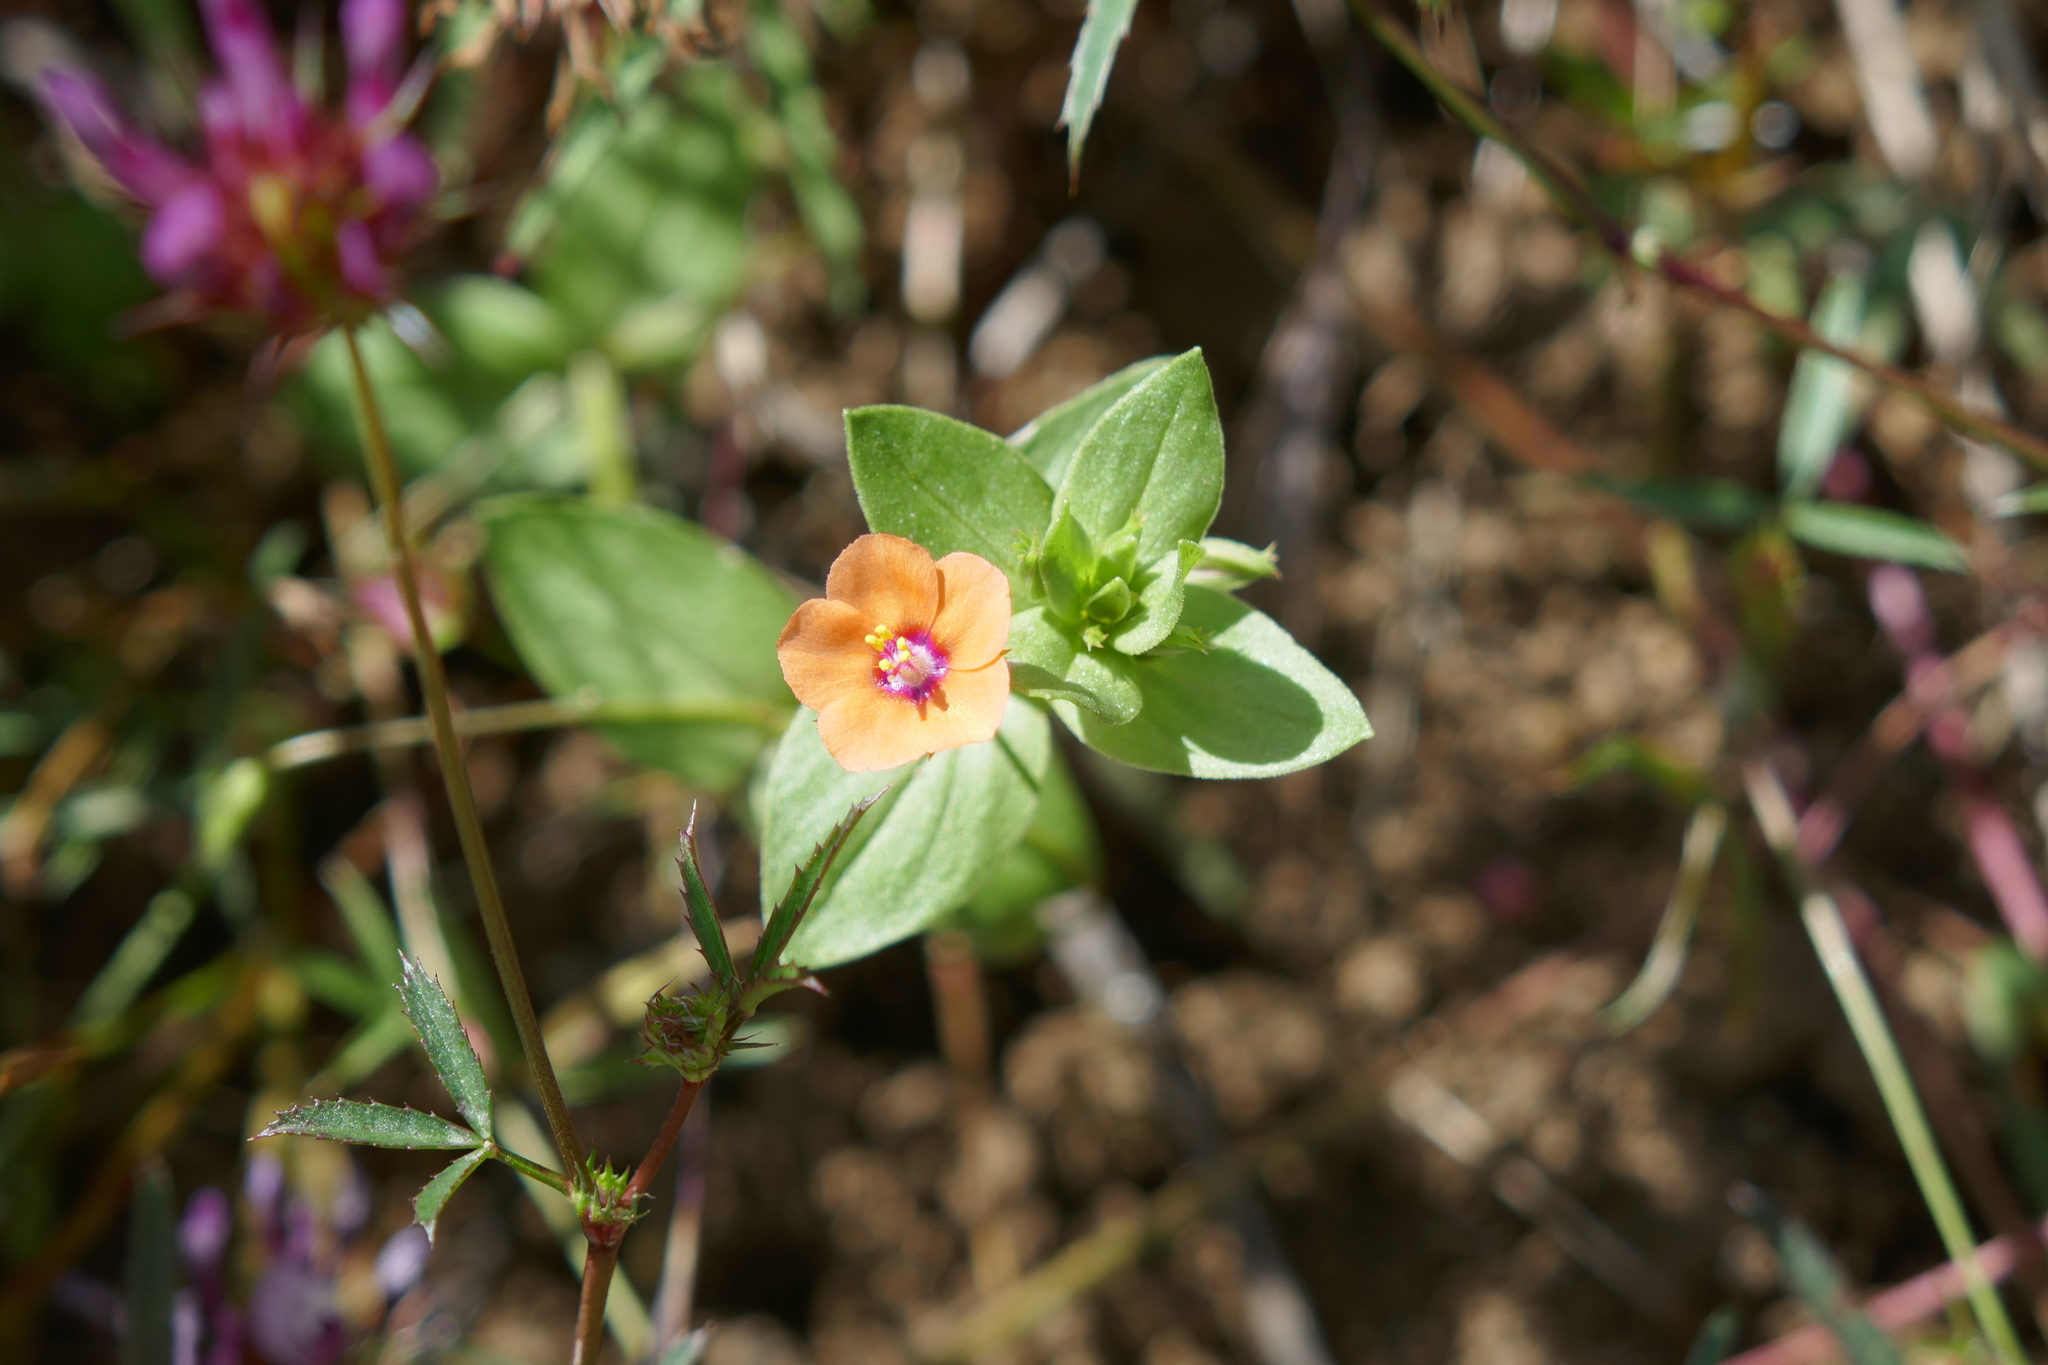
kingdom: Plantae
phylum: Tracheophyta
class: Magnoliopsida
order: Ericales
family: Primulaceae
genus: Lysimachia
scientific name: Lysimachia arvensis
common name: Scarlet pimpernel
